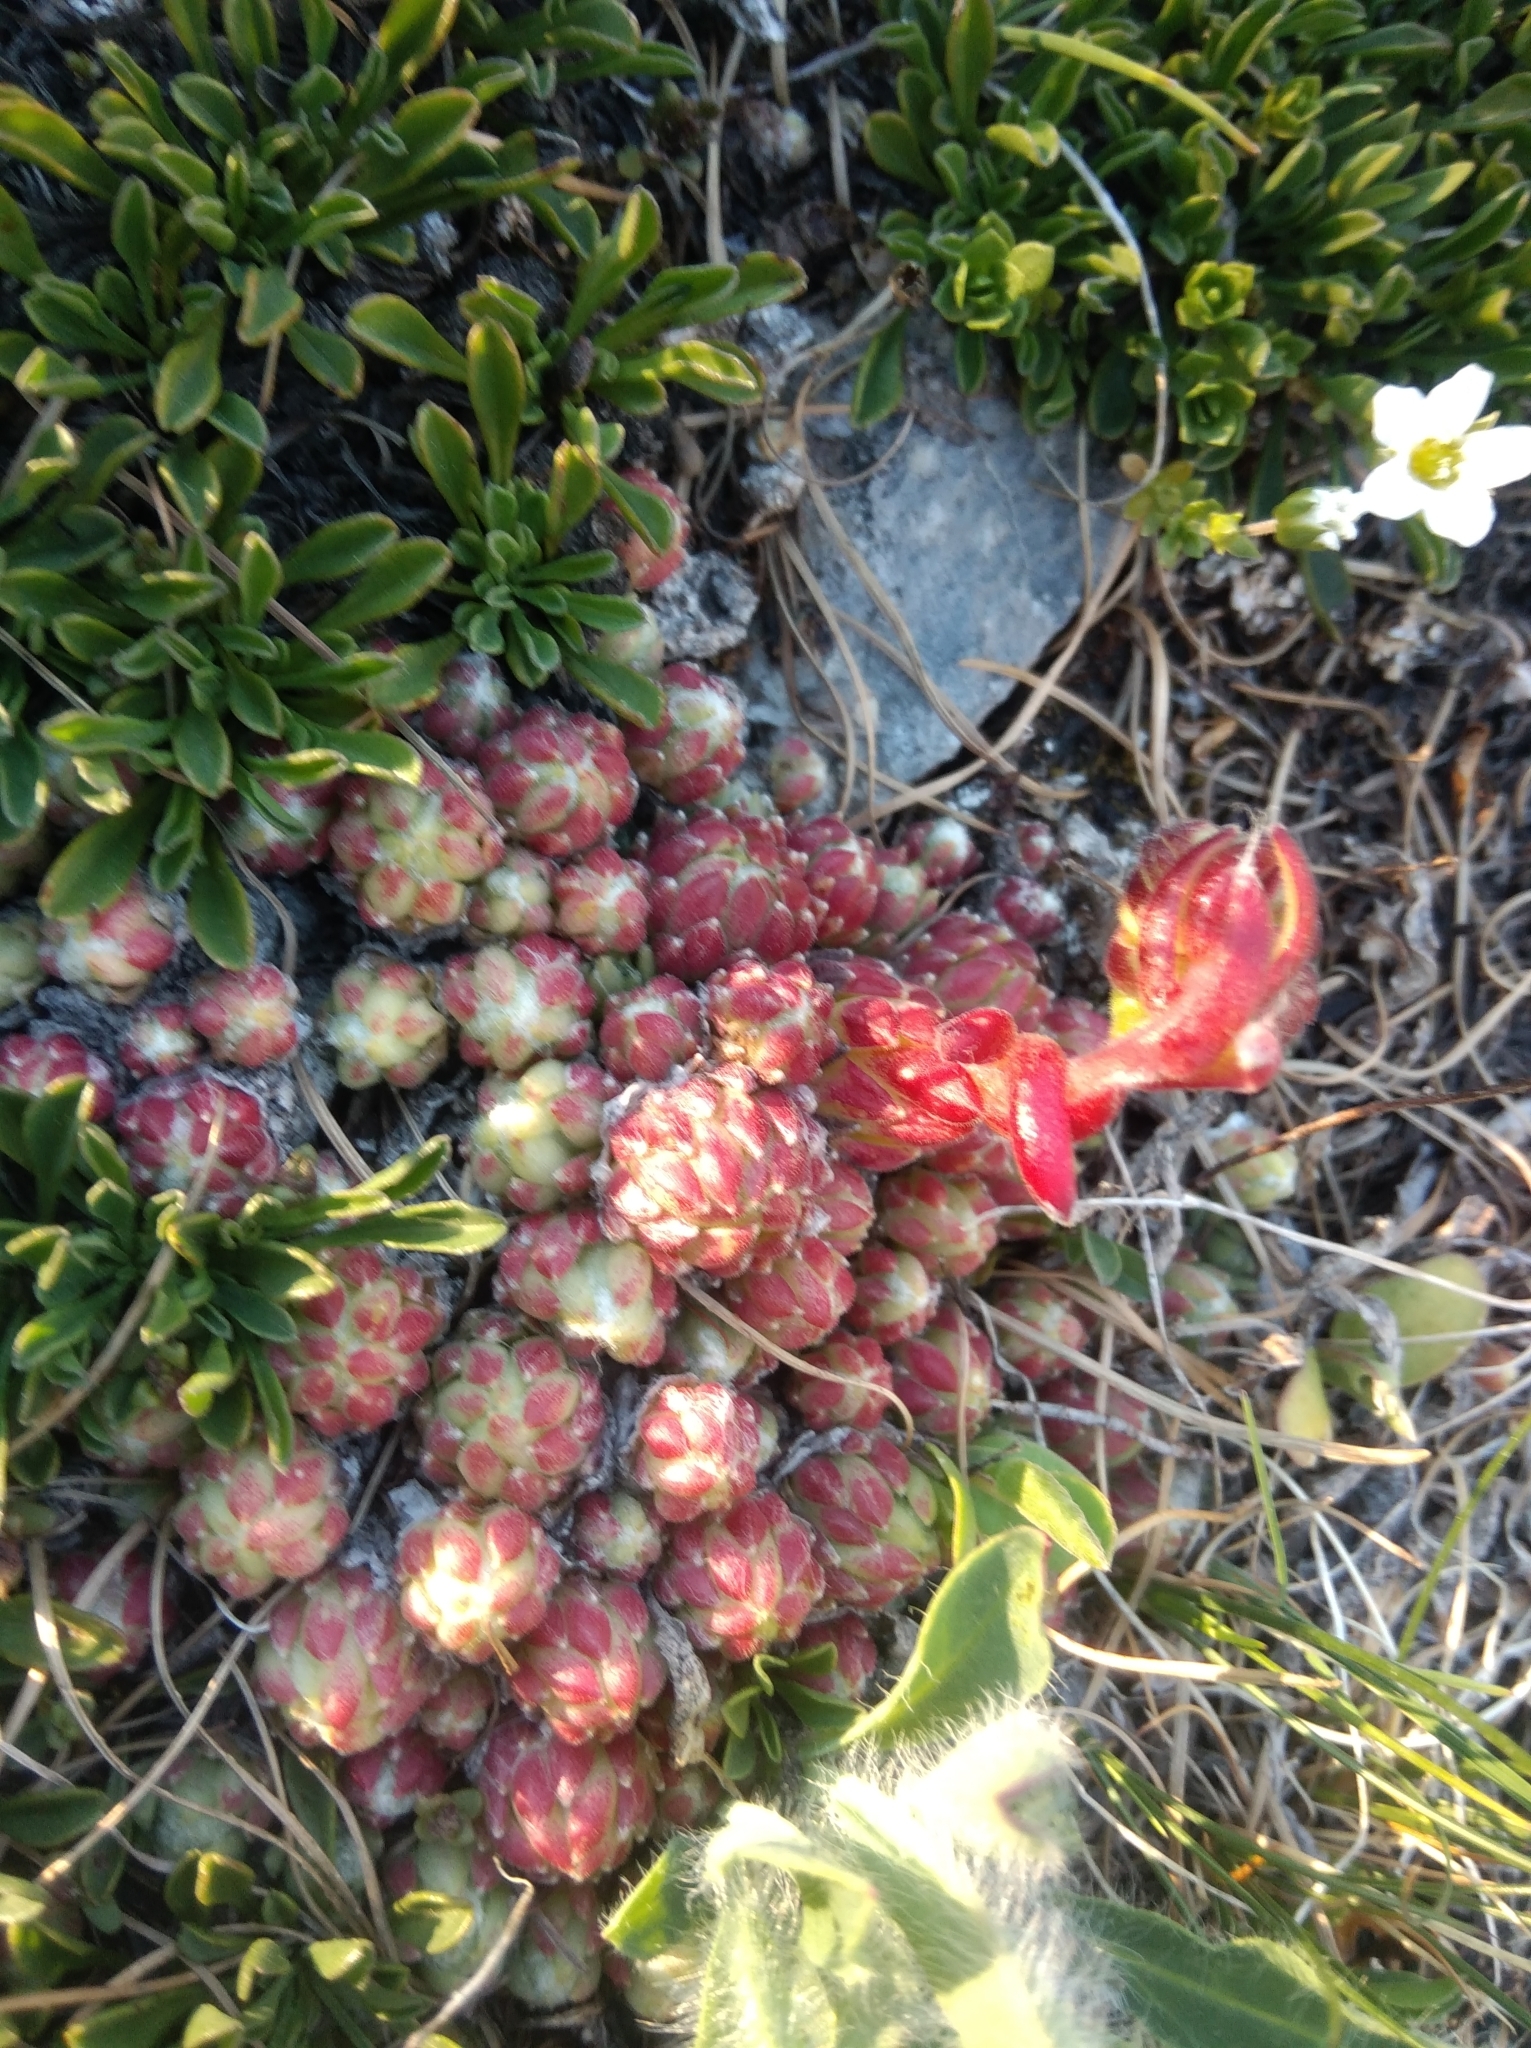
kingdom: Plantae
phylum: Tracheophyta
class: Magnoliopsida
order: Saxifragales
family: Crassulaceae
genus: Sempervivum
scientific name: Sempervivum arachnoideum
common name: Cobweb house-leek
